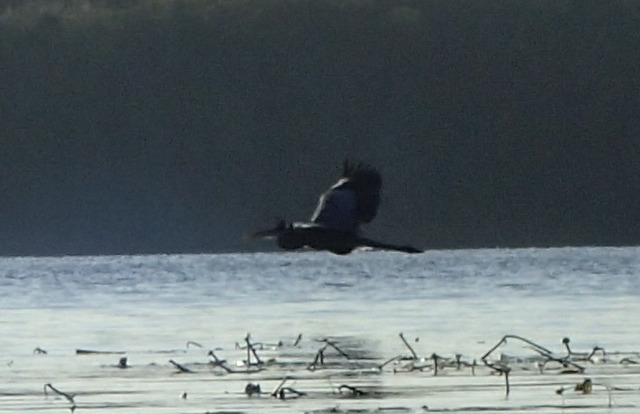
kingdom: Animalia
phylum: Chordata
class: Aves
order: Pelecaniformes
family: Ardeidae
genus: Ardea
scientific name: Ardea herodias
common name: Great blue heron
